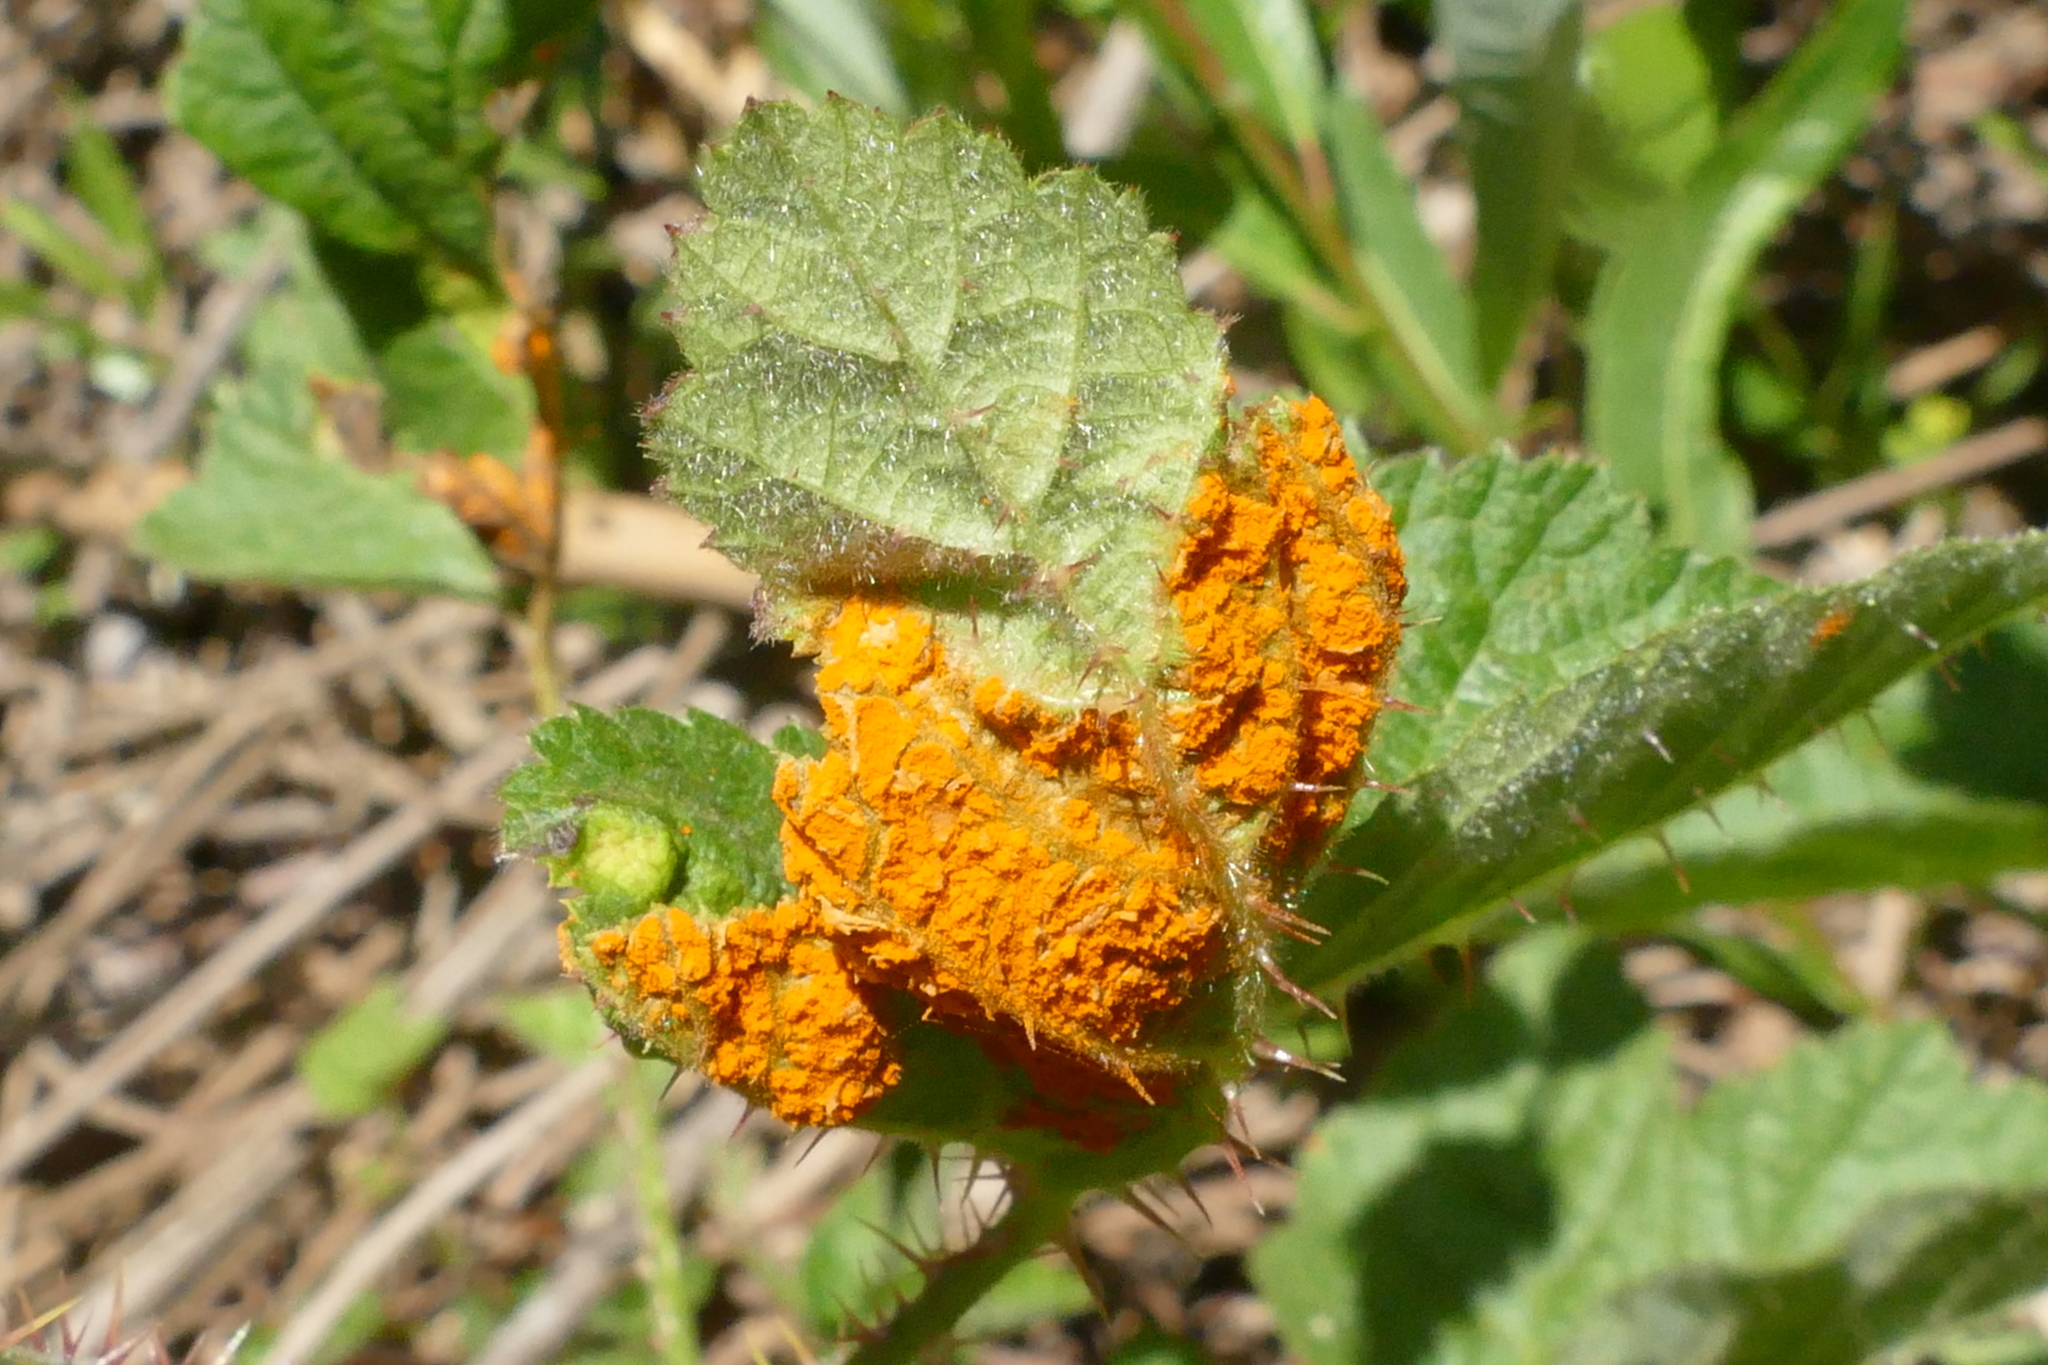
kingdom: Fungi
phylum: Basidiomycota
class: Pucciniomycetes
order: Pucciniales
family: Phragmidiaceae
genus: Gymnoconia
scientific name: Gymnoconia nitens
